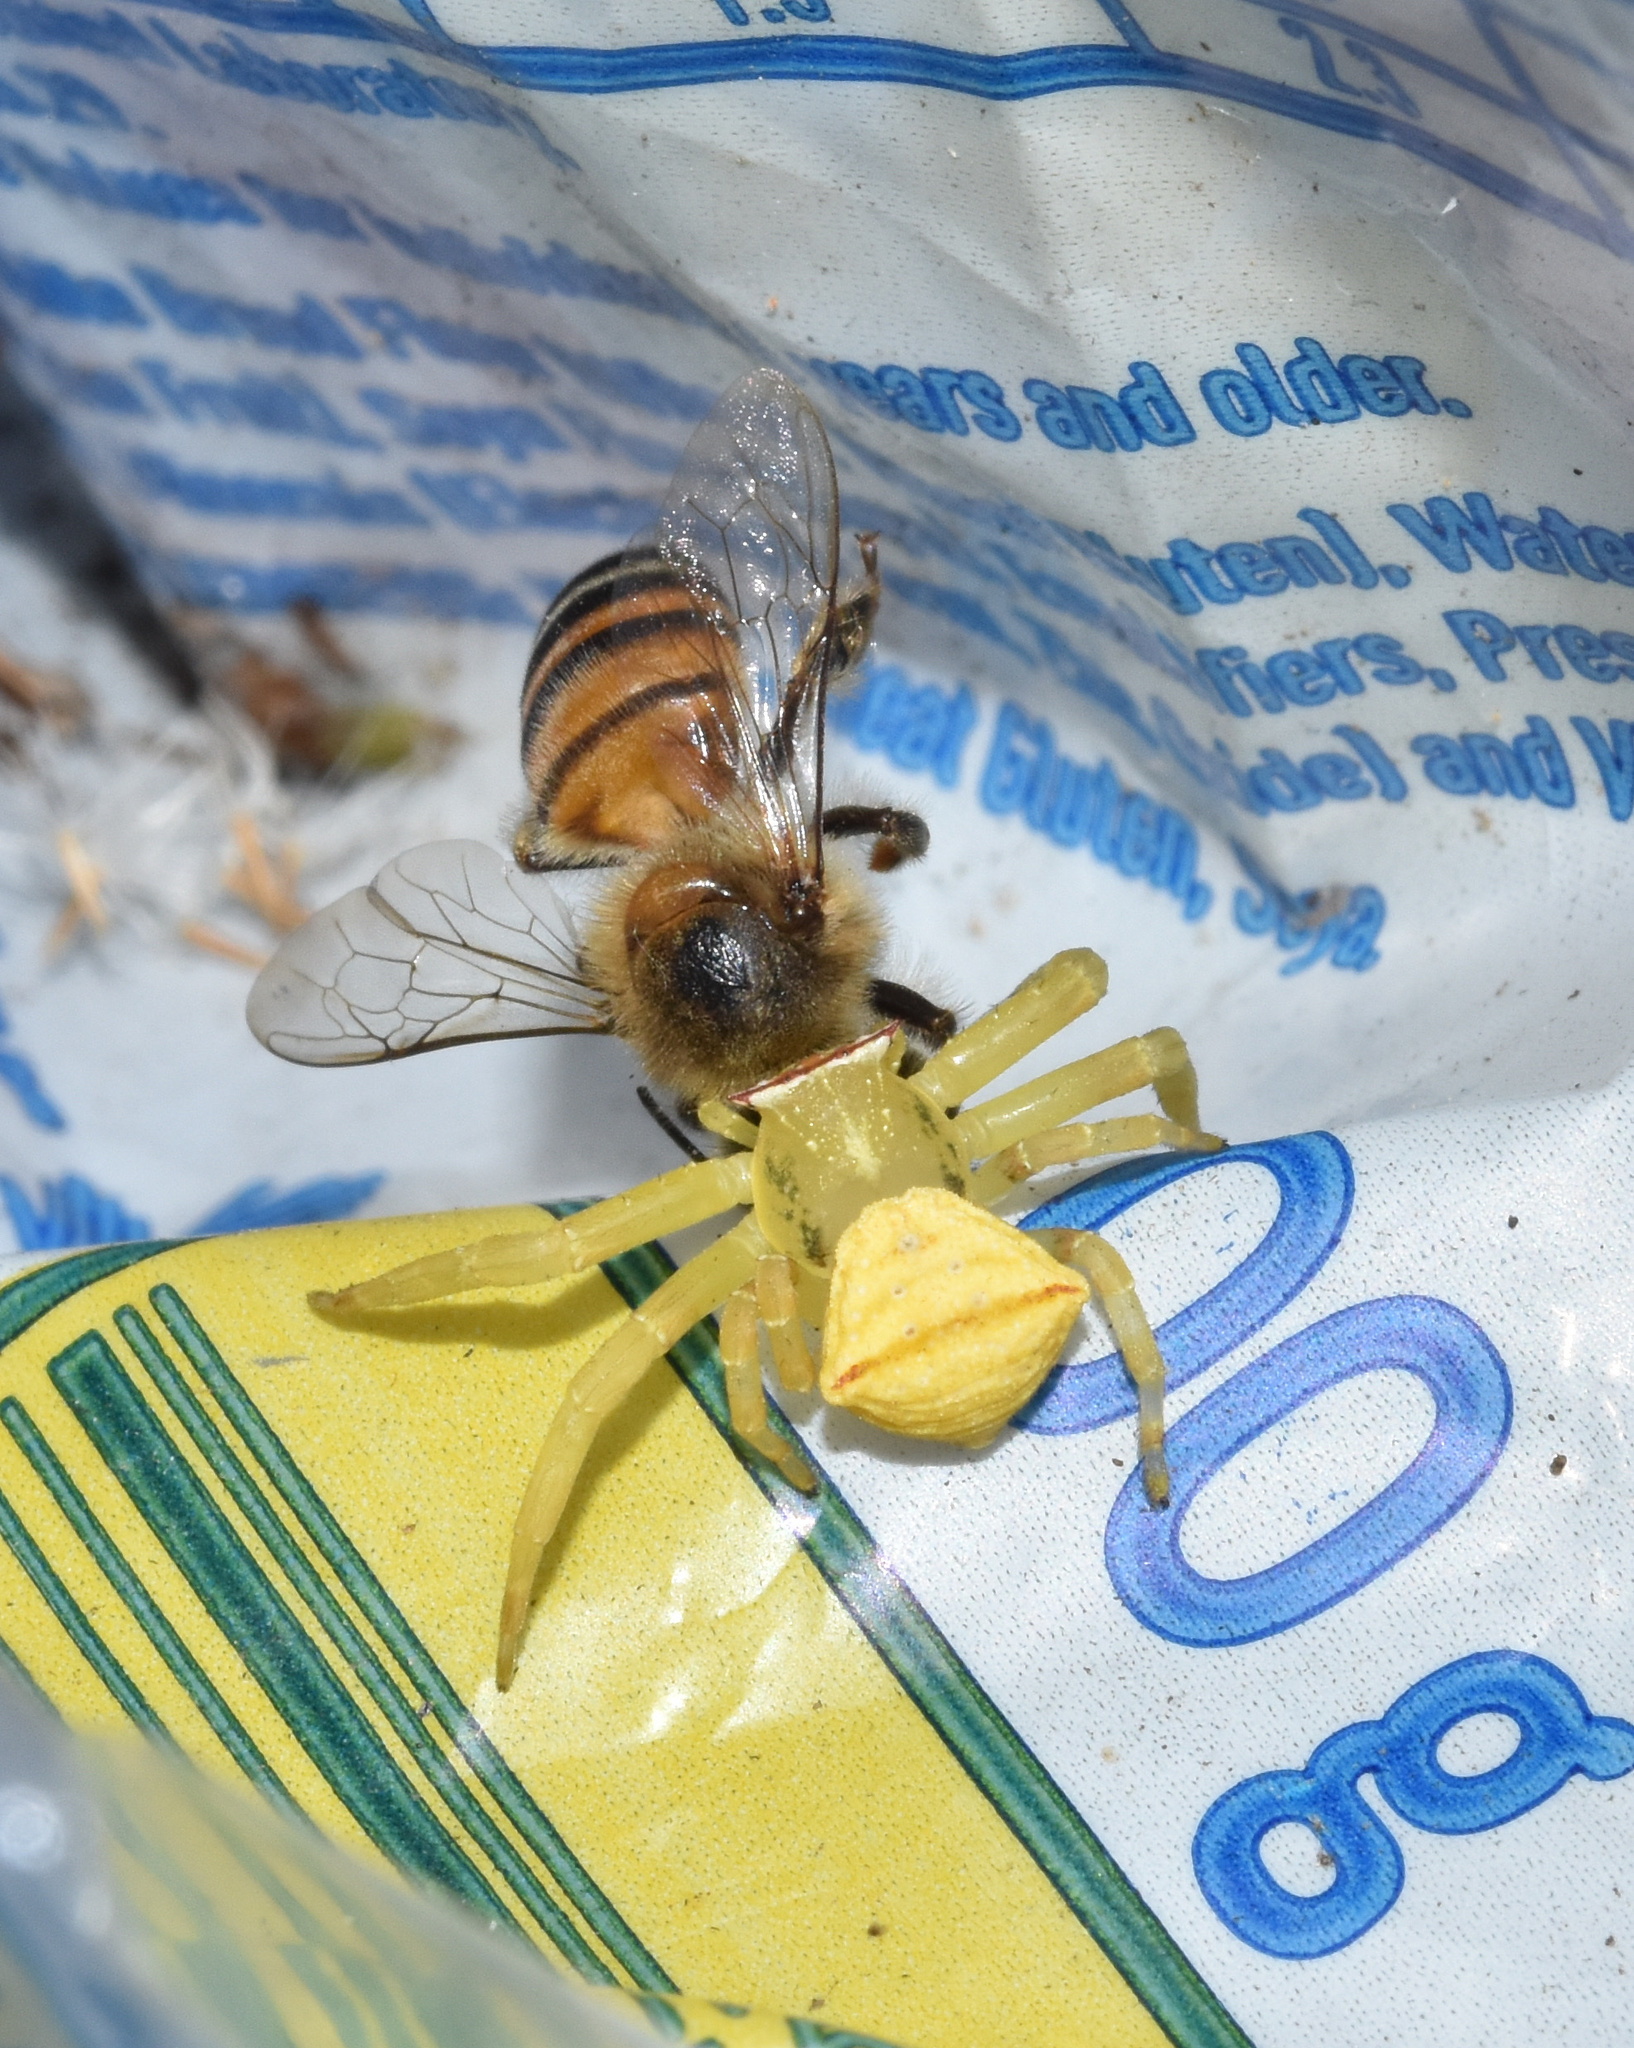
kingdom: Animalia
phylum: Arthropoda
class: Insecta
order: Hymenoptera
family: Apidae
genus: Apis
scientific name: Apis mellifera
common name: Honey bee
